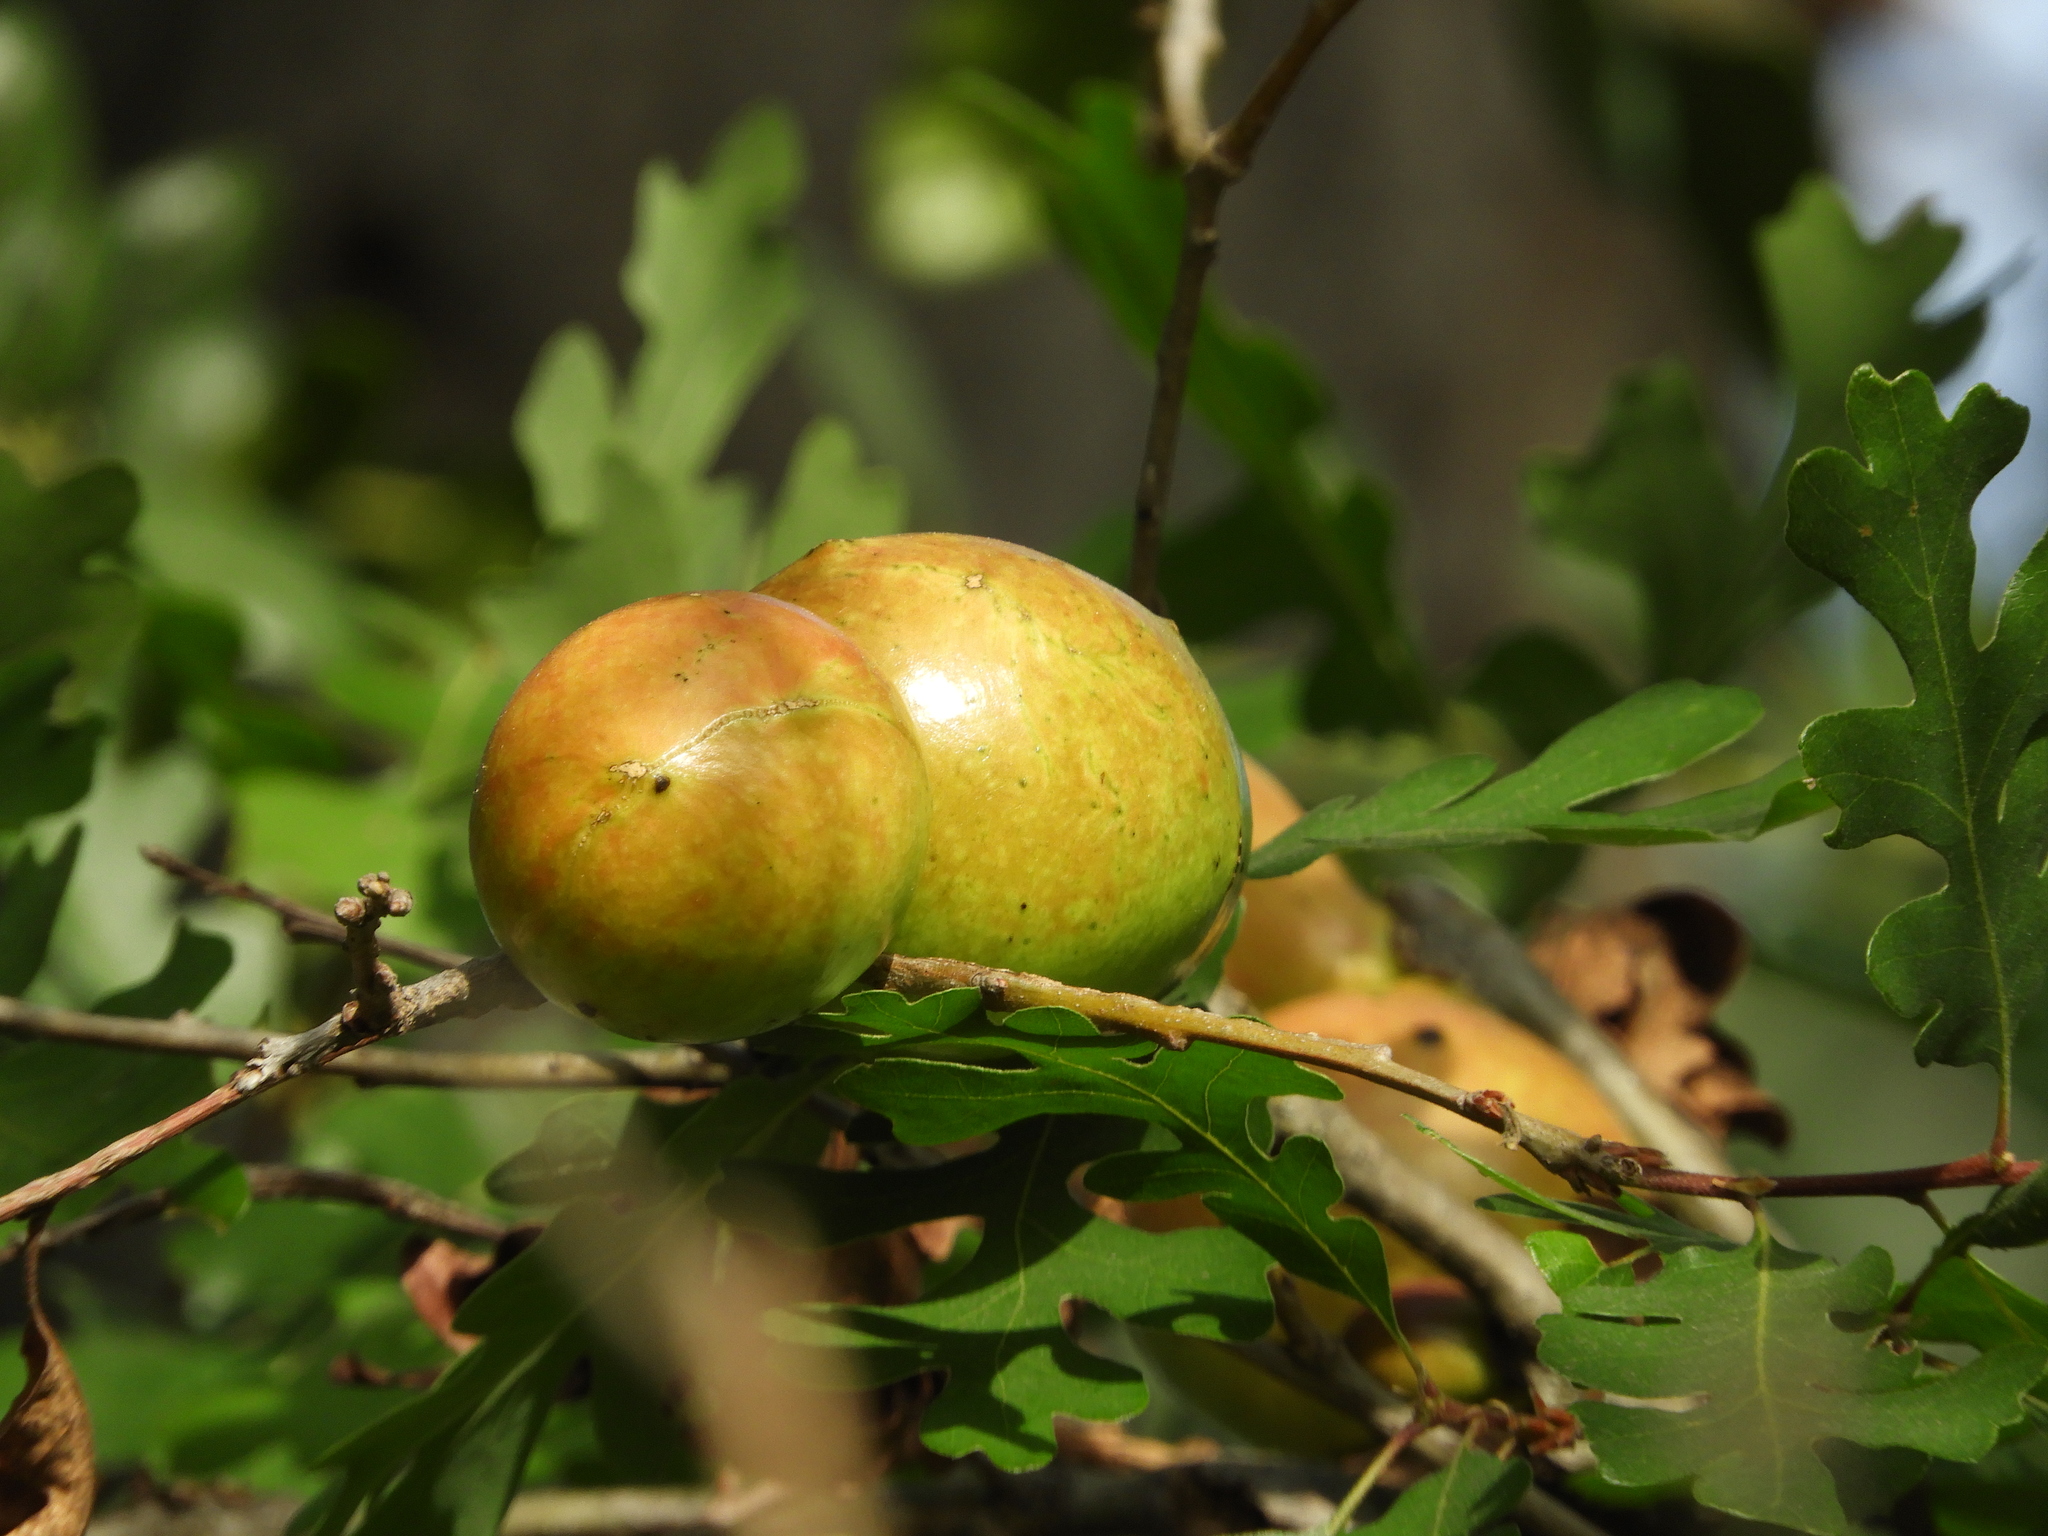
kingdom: Animalia
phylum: Arthropoda
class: Insecta
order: Hymenoptera
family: Cynipidae
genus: Andricus
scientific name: Andricus quercuscalifornicus
